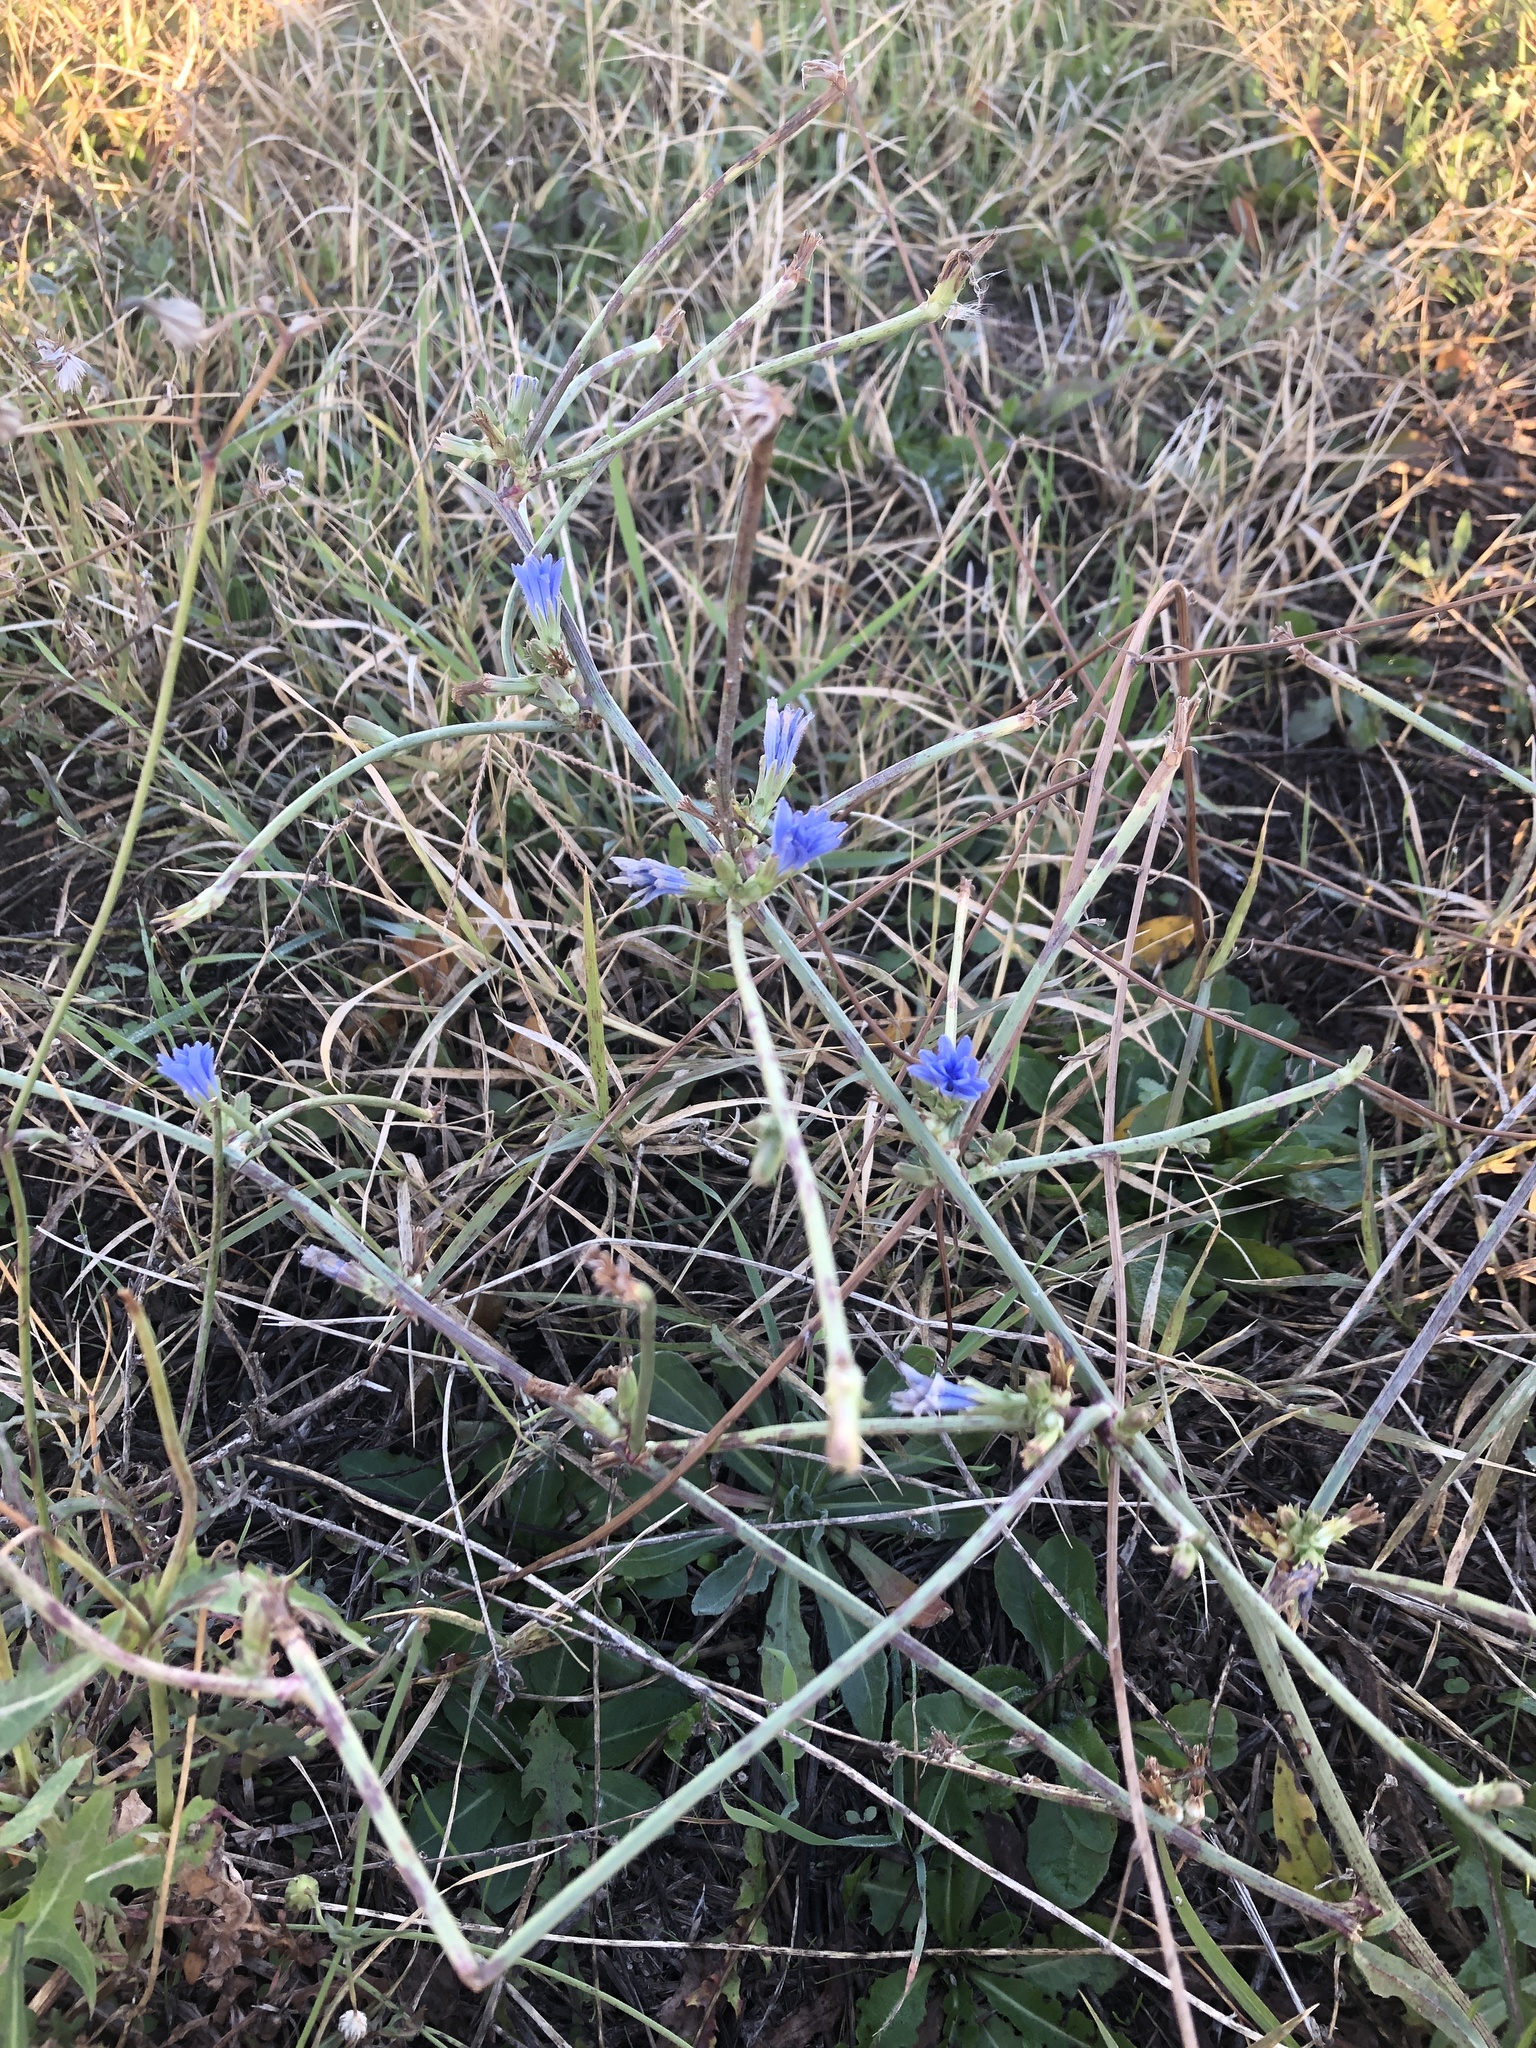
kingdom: Plantae
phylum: Tracheophyta
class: Magnoliopsida
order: Asterales
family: Asteraceae
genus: Cichorium
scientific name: Cichorium intybus
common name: Chicory
